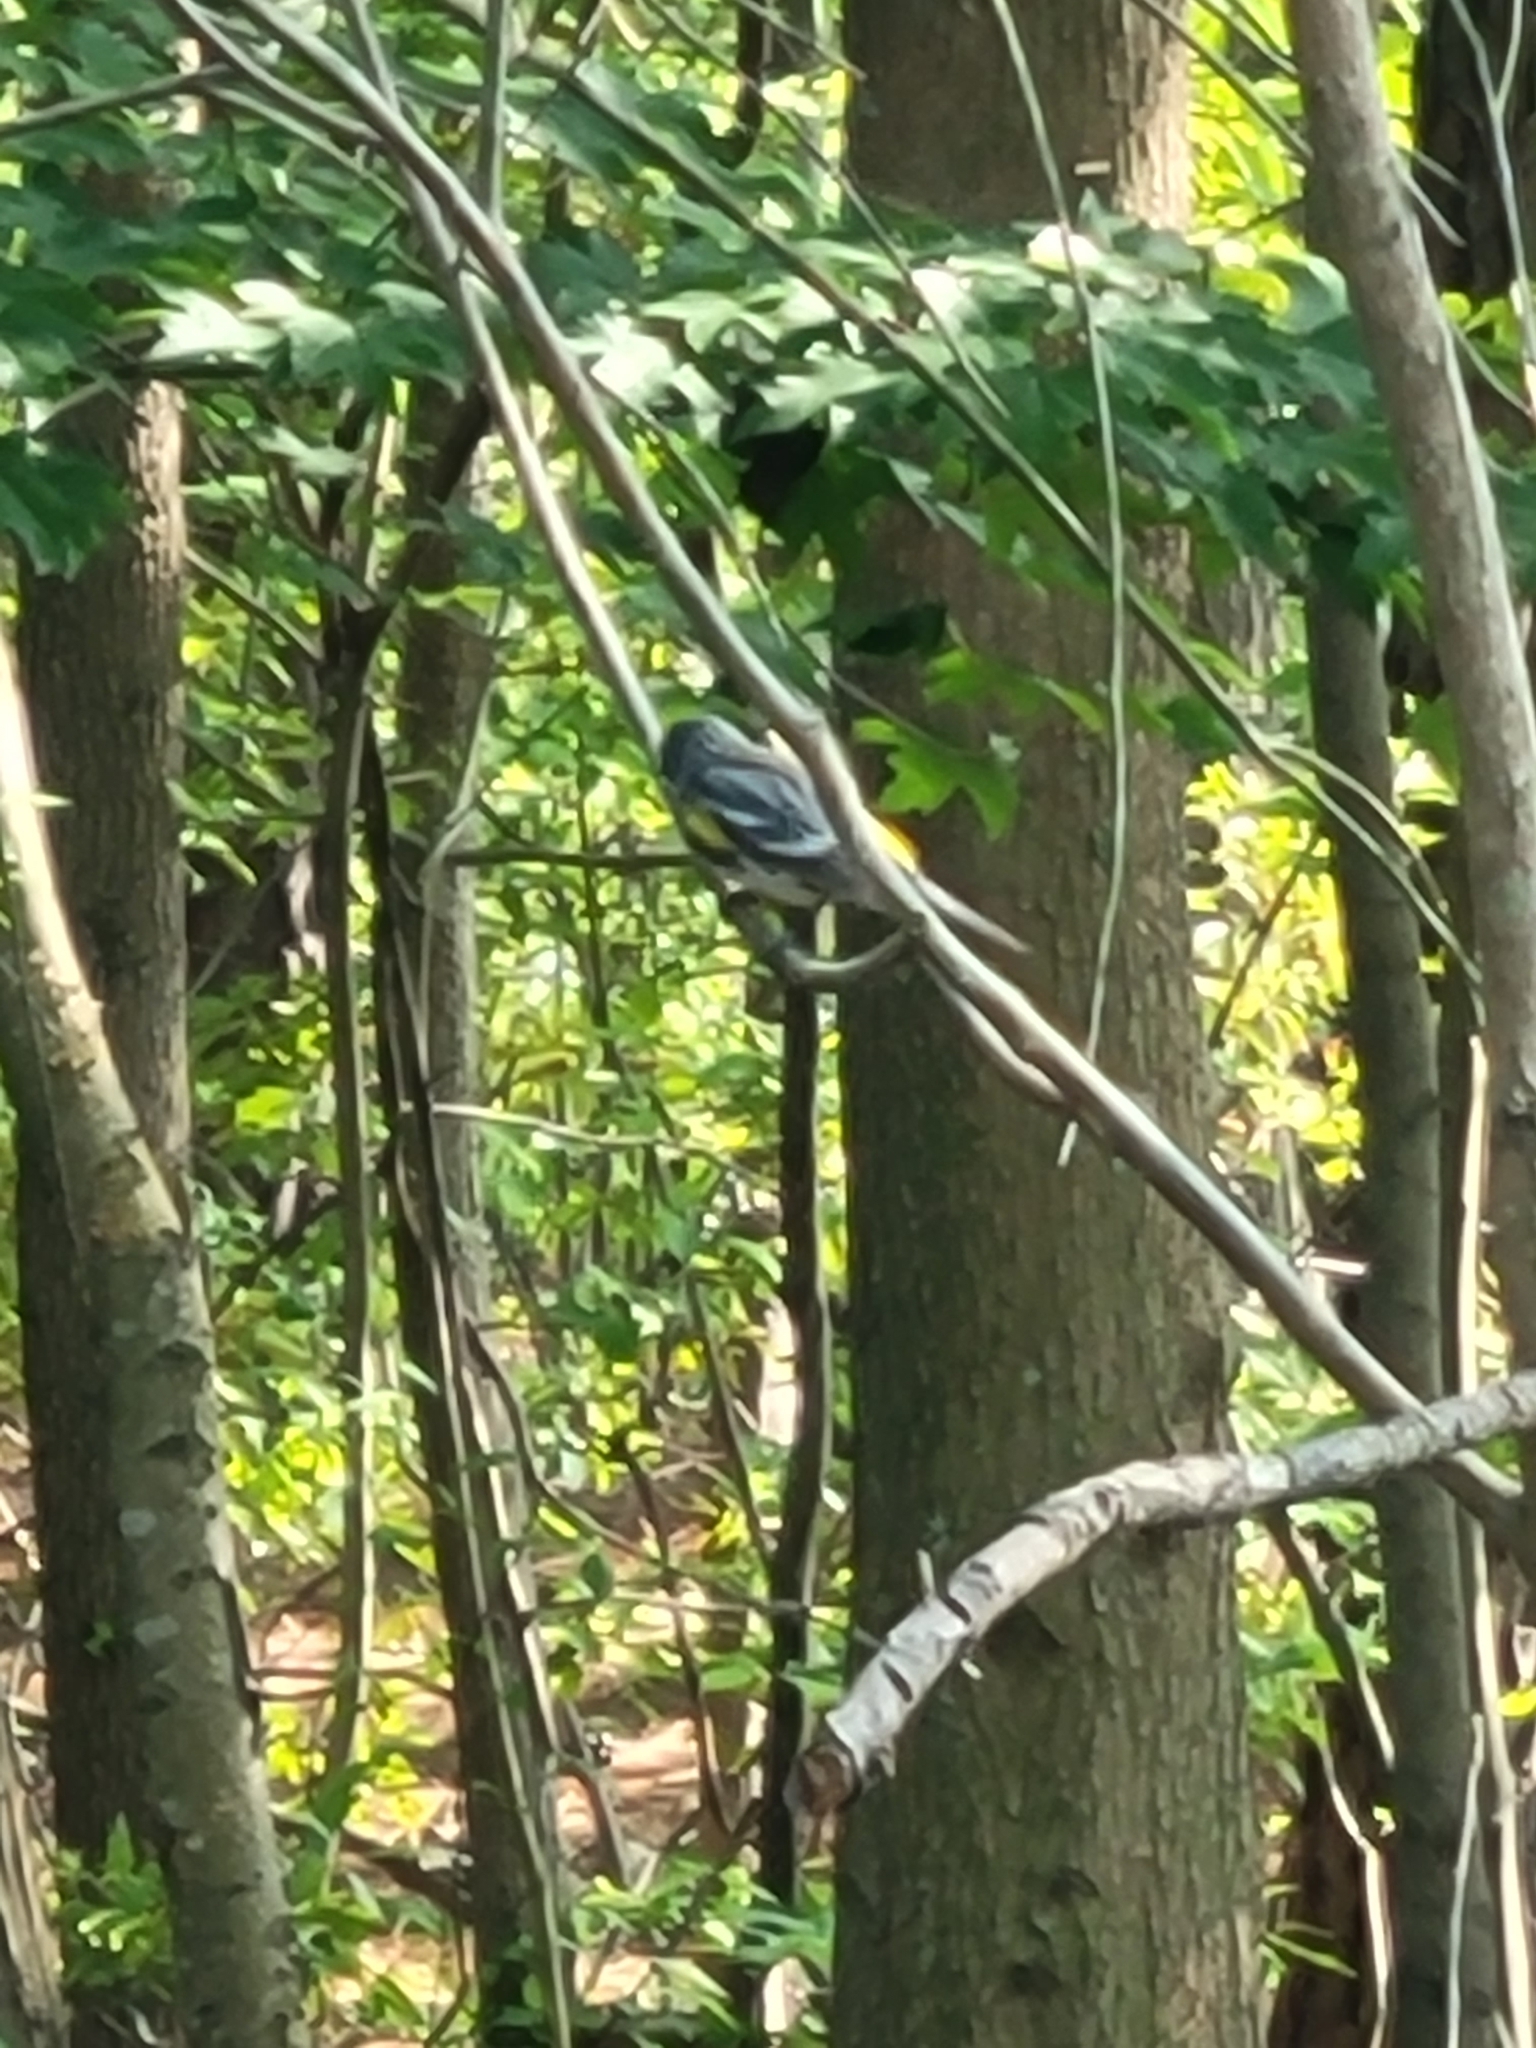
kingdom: Animalia
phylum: Chordata
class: Aves
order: Passeriformes
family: Parulidae
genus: Setophaga
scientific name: Setophaga coronata
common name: Myrtle warbler
